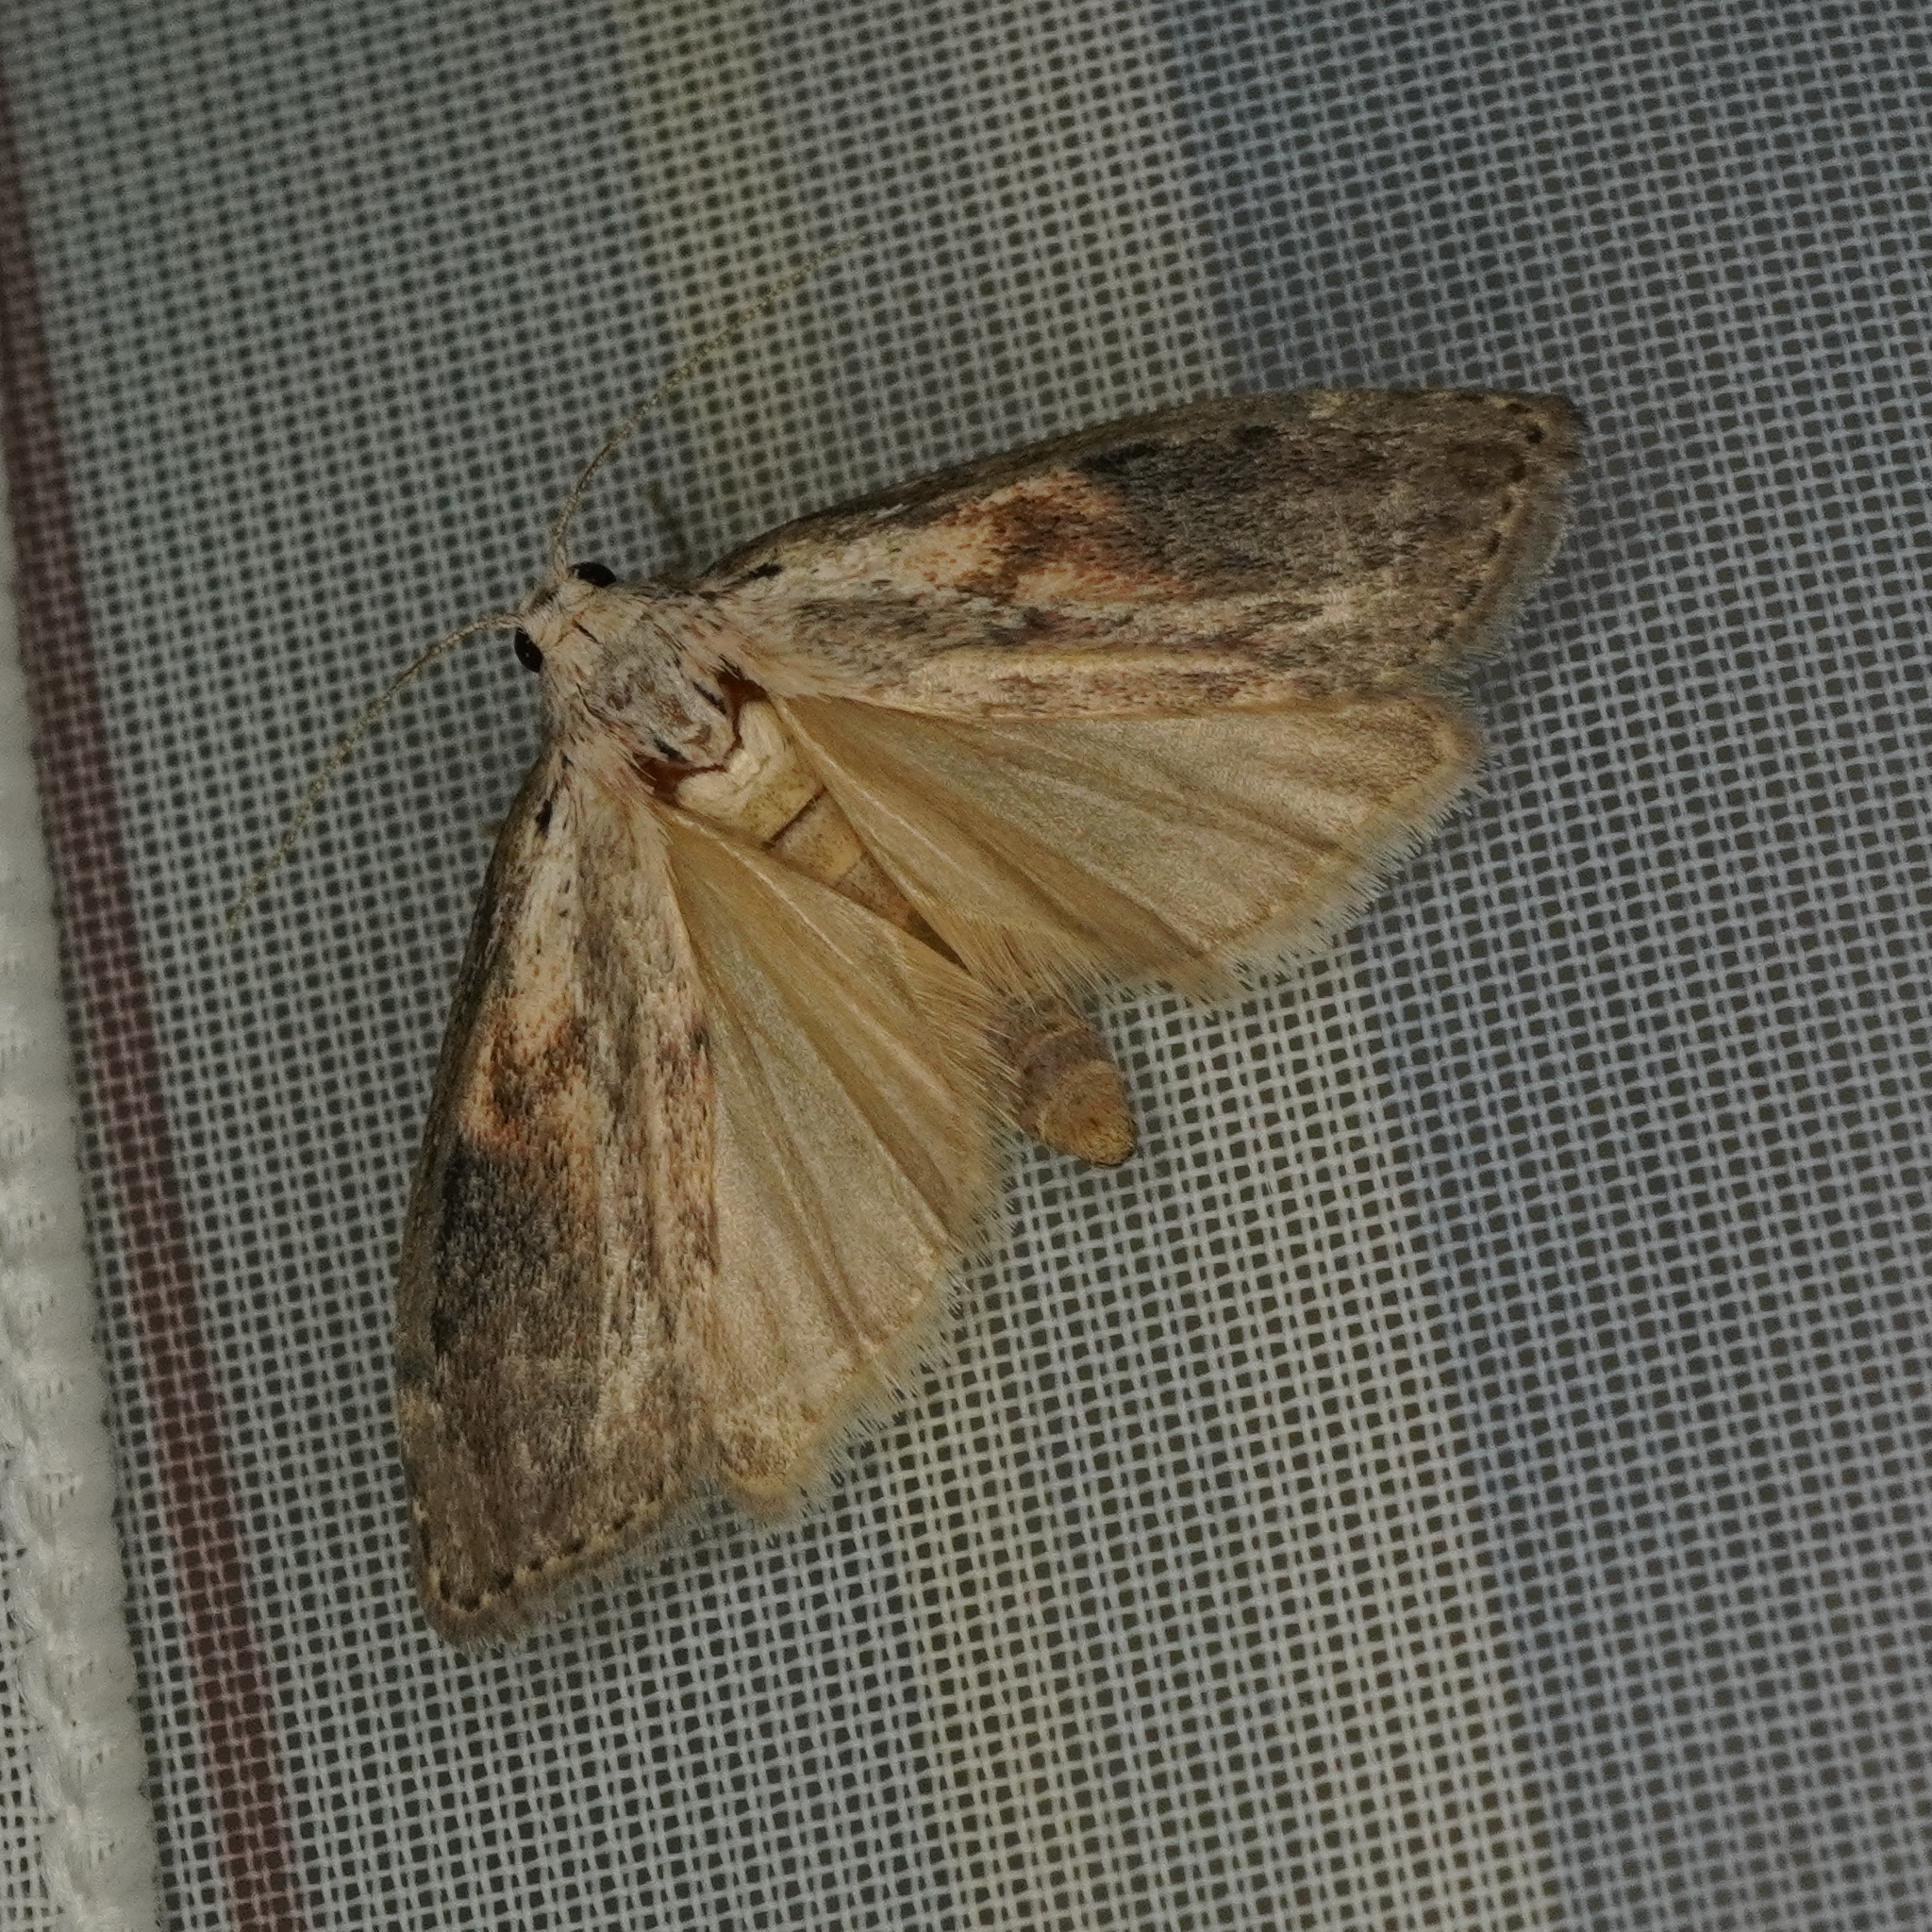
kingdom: Animalia
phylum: Arthropoda
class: Insecta
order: Lepidoptera
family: Pyralidae
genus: Aphomia
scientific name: Aphomia sociella
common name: Bee moth
